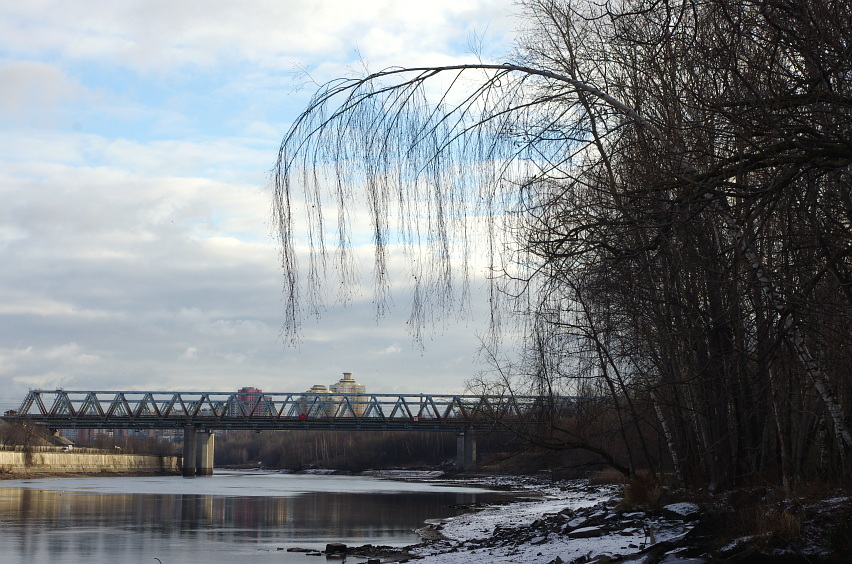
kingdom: Plantae
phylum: Tracheophyta
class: Magnoliopsida
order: Fagales
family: Betulaceae
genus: Betula
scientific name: Betula pendula
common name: Silver birch
